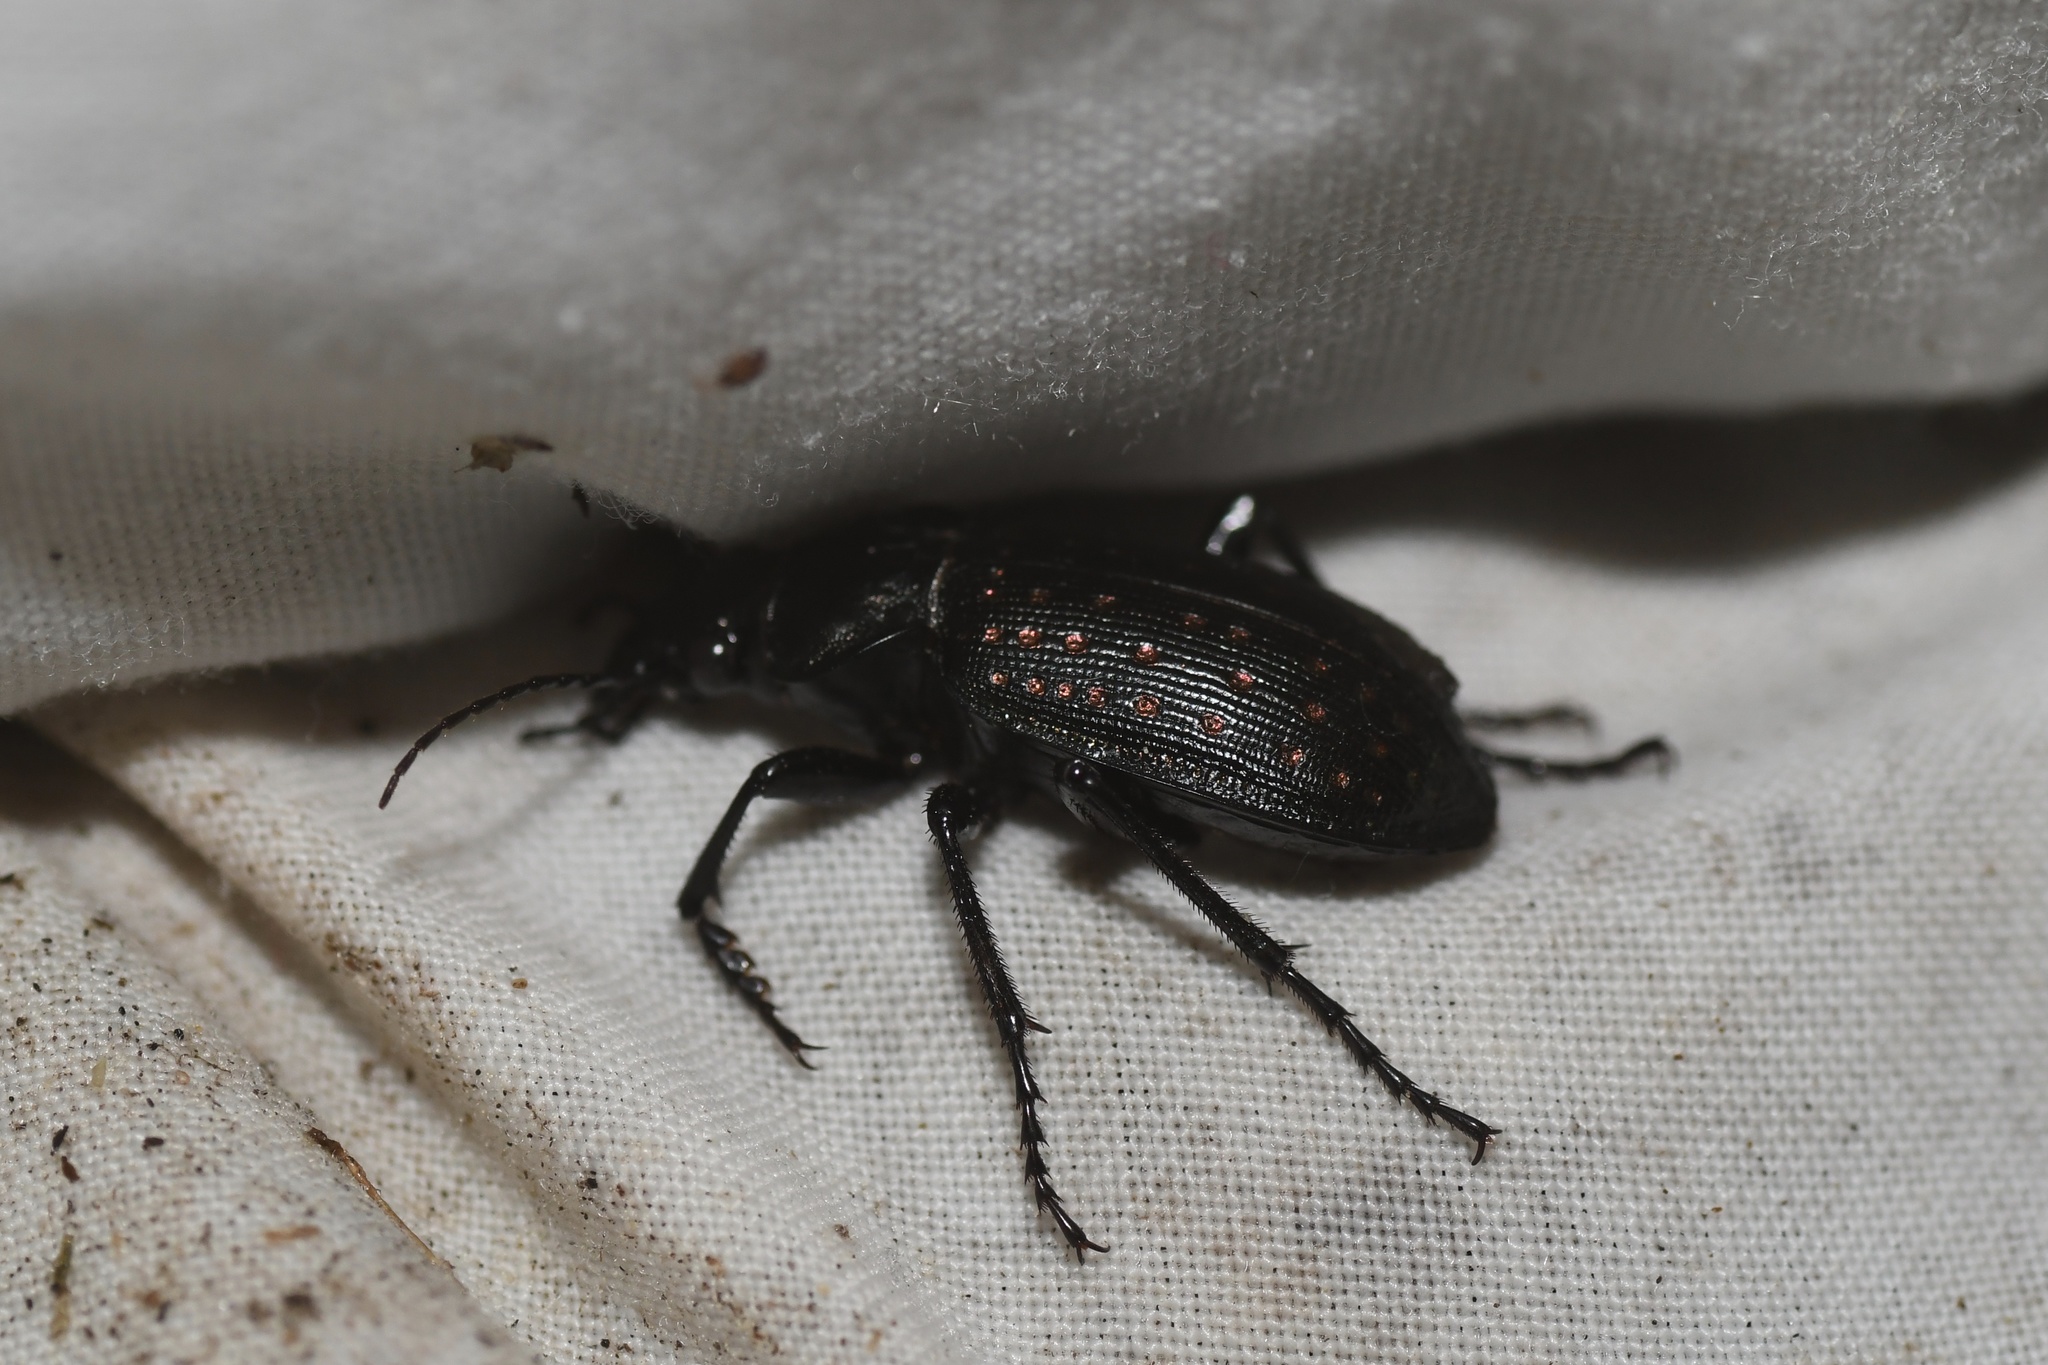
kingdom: Animalia
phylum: Arthropoda
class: Insecta
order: Coleoptera
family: Carabidae
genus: Calosoma
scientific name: Calosoma calidum
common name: Fiery hunter
